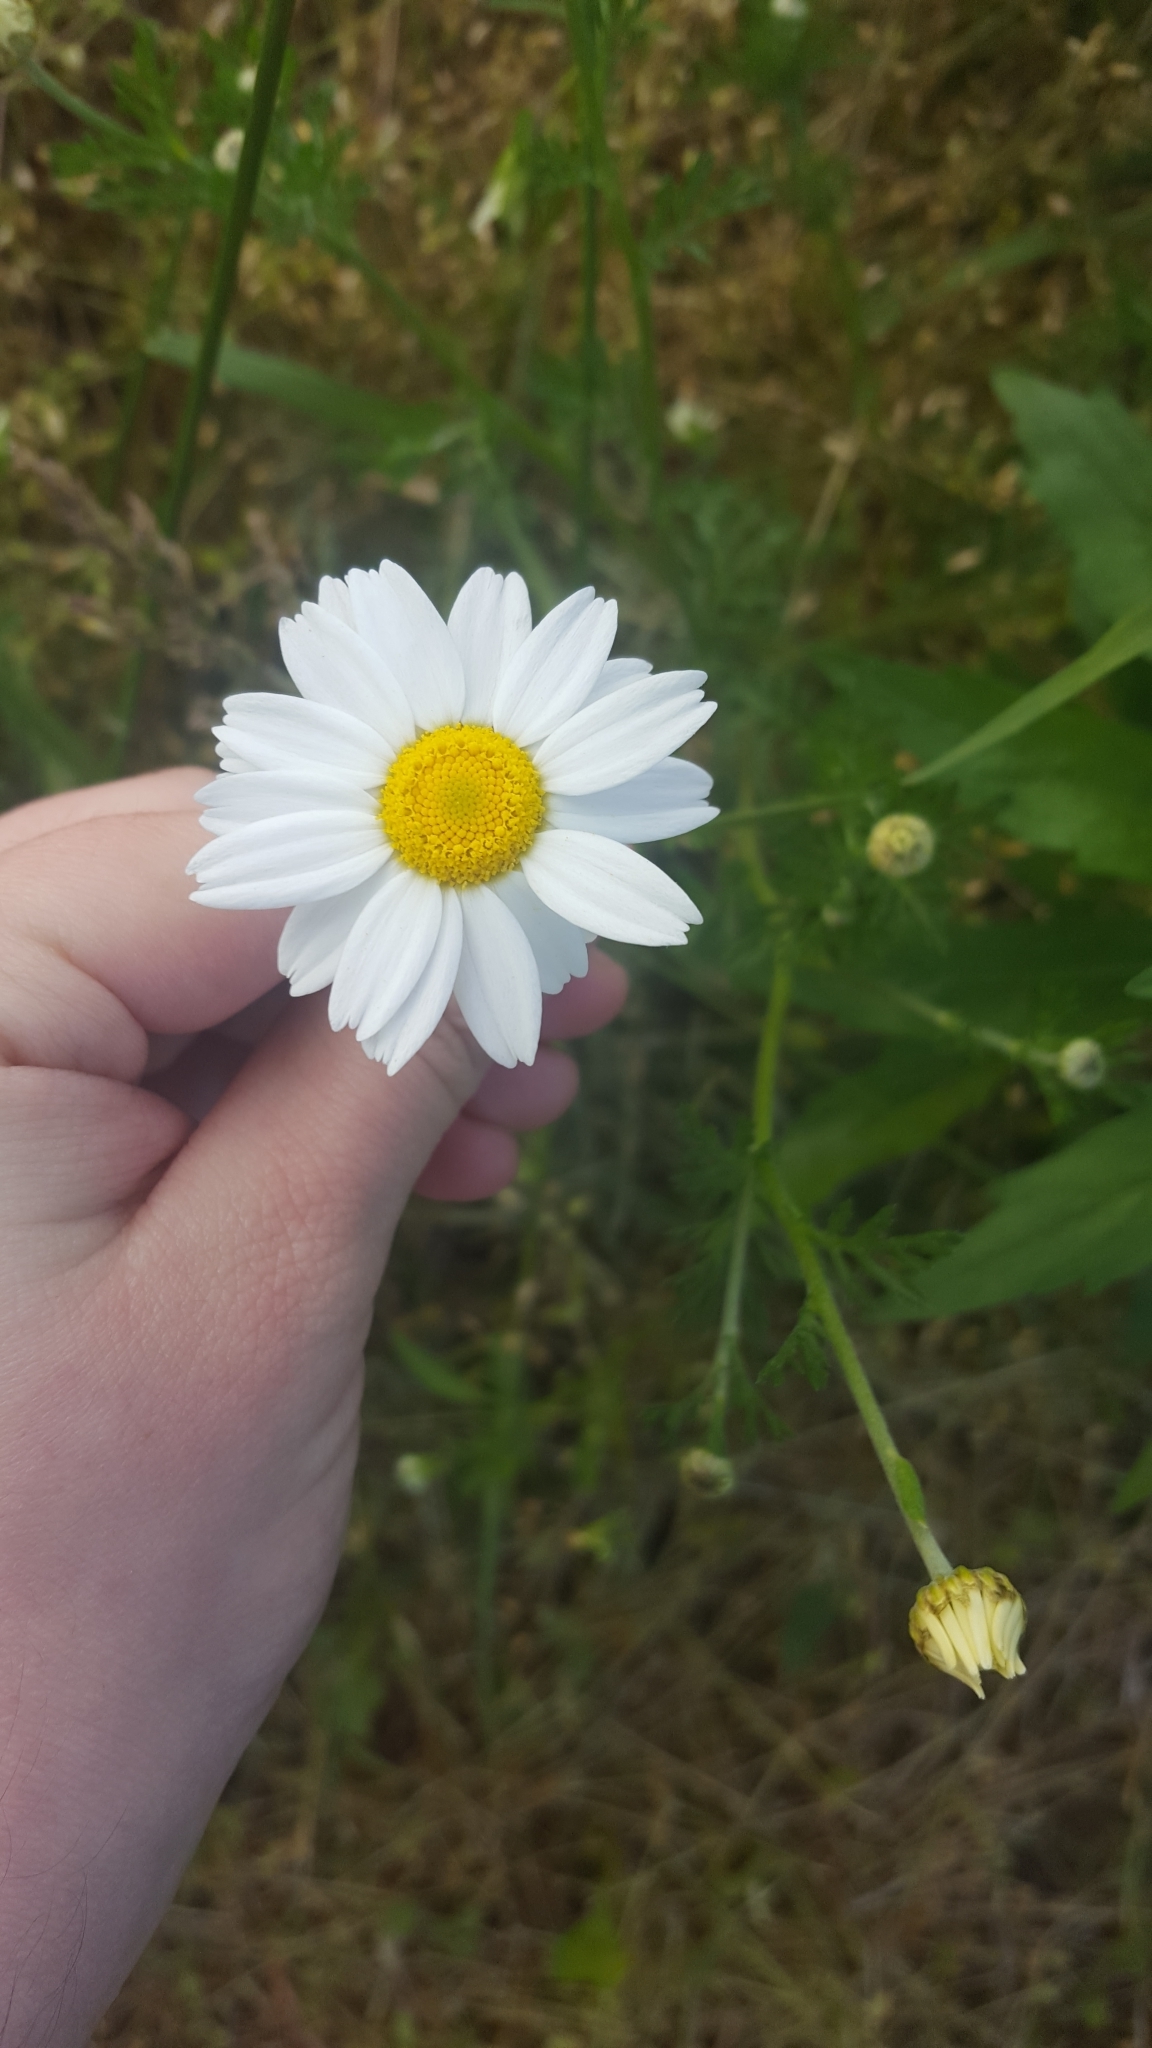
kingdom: Plantae
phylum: Tracheophyta
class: Magnoliopsida
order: Asterales
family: Asteraceae
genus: Leucanthemum
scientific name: Leucanthemum vulgare
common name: Oxeye daisy
